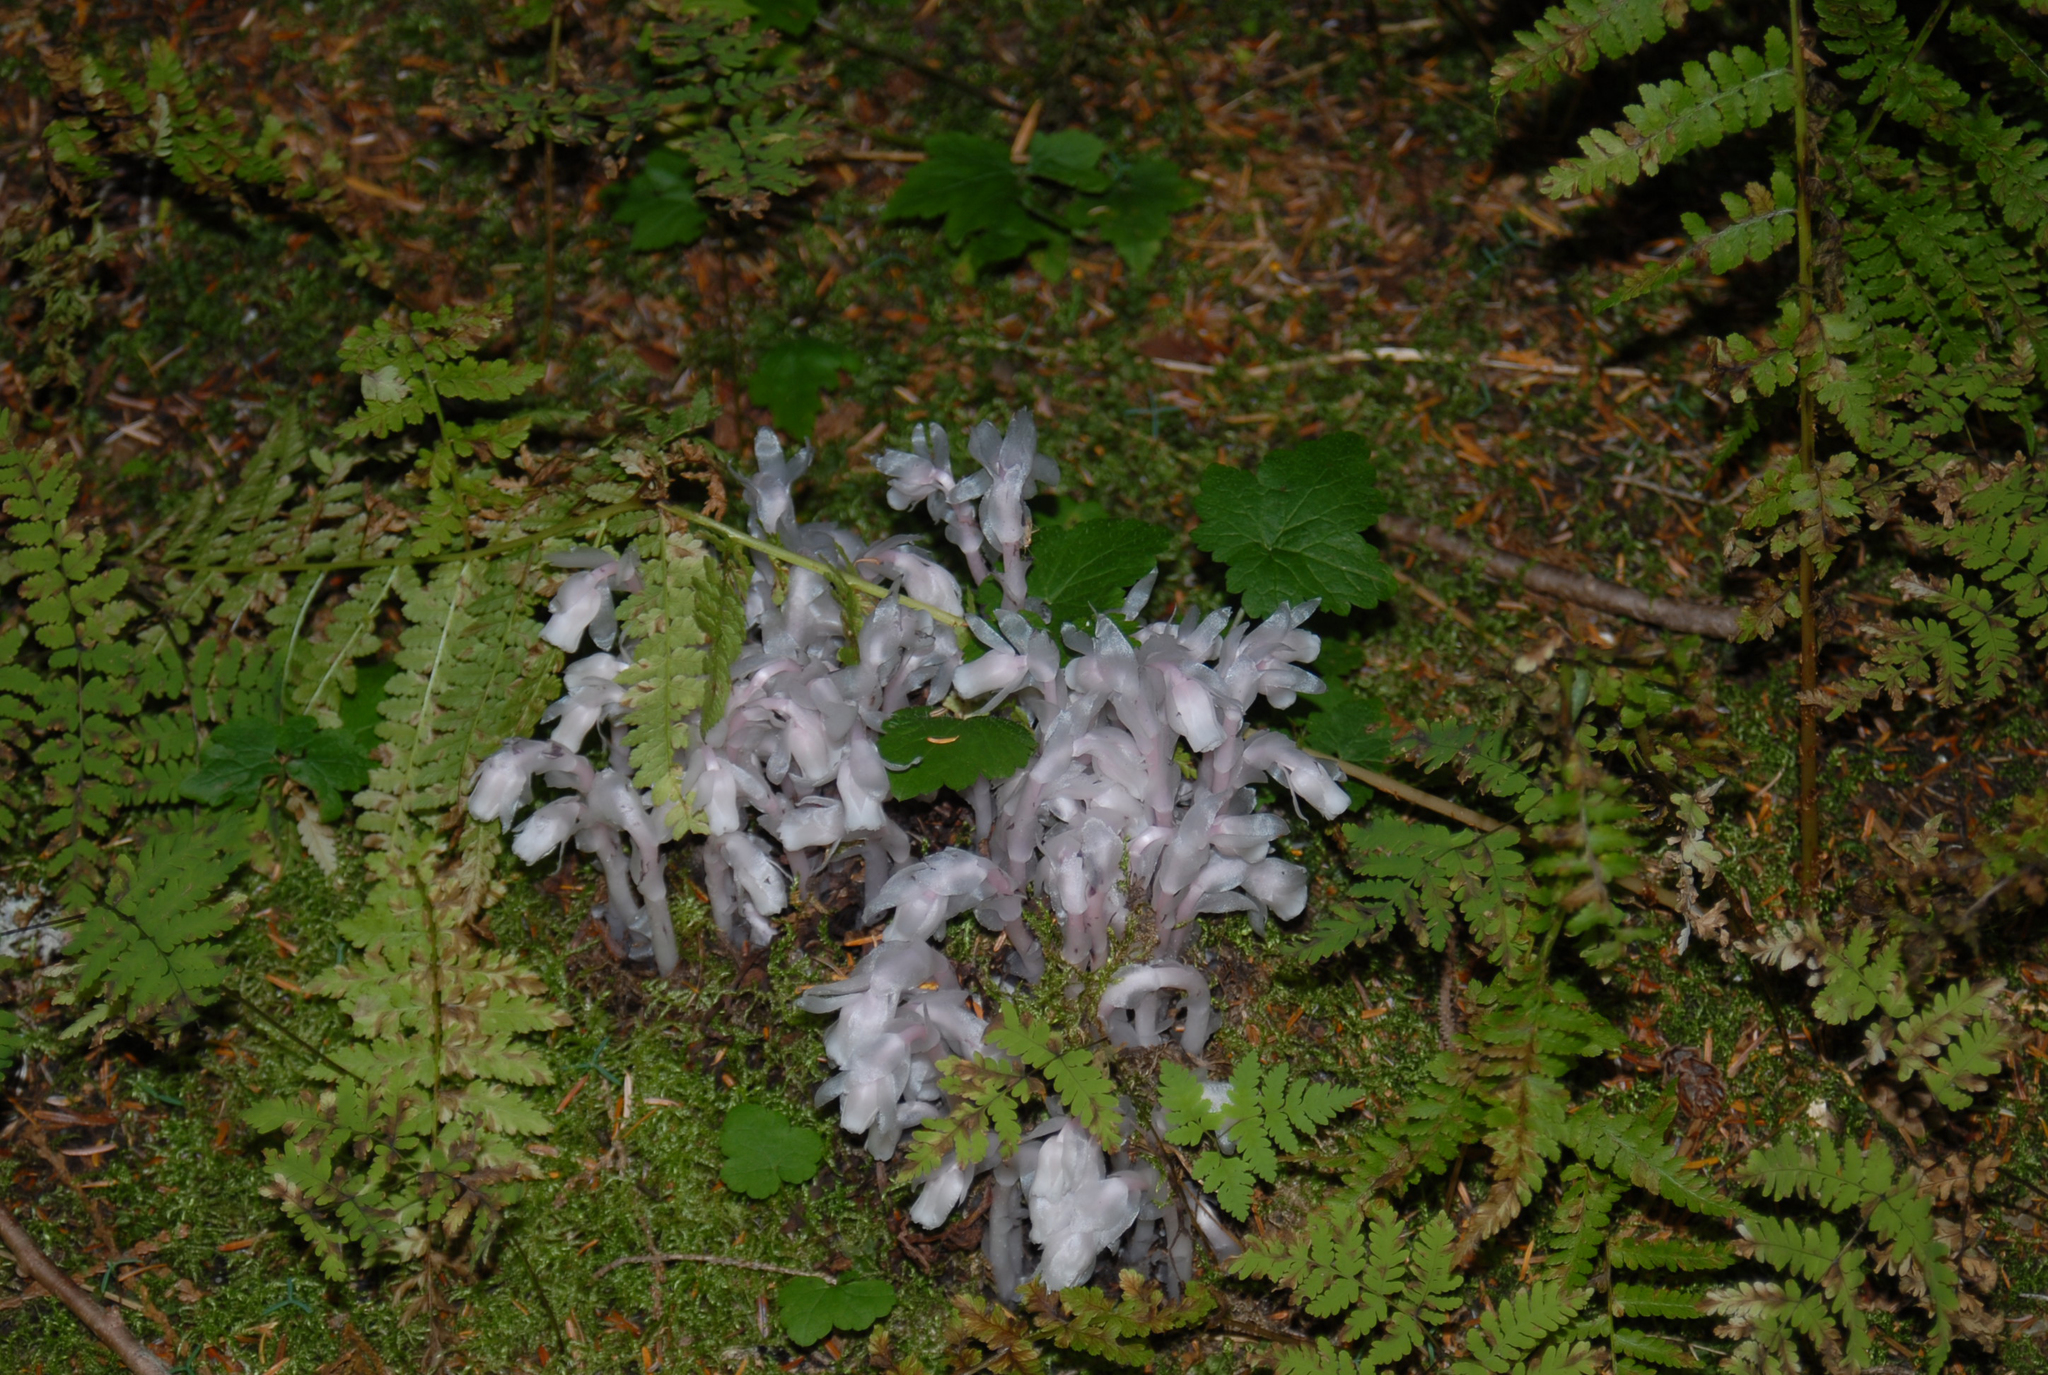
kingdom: Plantae
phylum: Tracheophyta
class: Magnoliopsida
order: Ericales
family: Ericaceae
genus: Monotropa
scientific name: Monotropa uniflora
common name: Convulsion root
